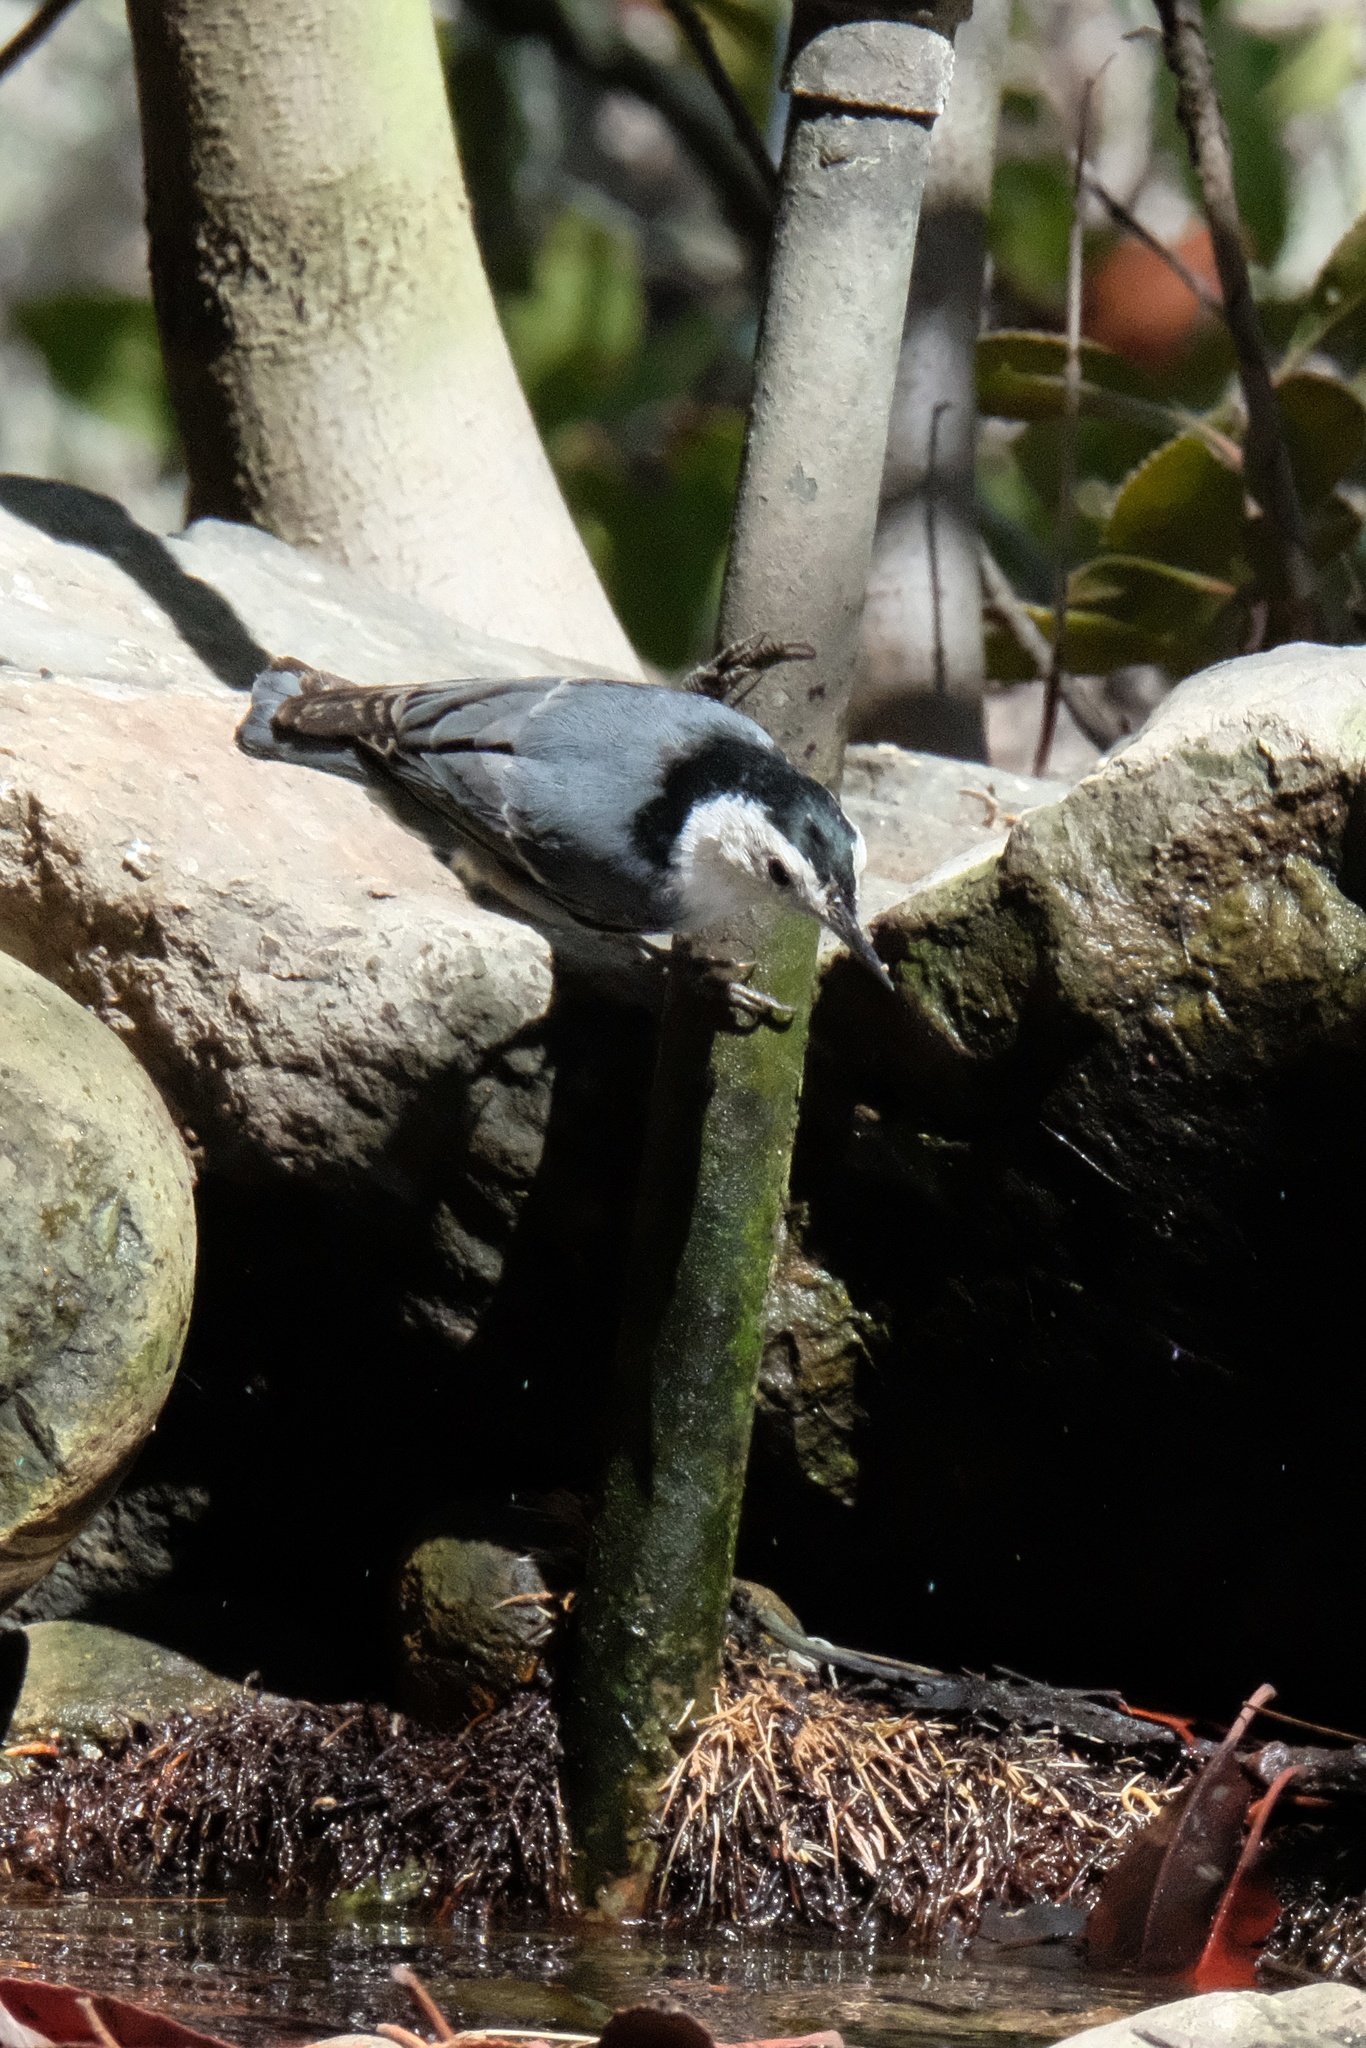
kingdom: Animalia
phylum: Chordata
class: Aves
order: Passeriformes
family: Sittidae
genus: Sitta
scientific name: Sitta carolinensis
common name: White-breasted nuthatch
